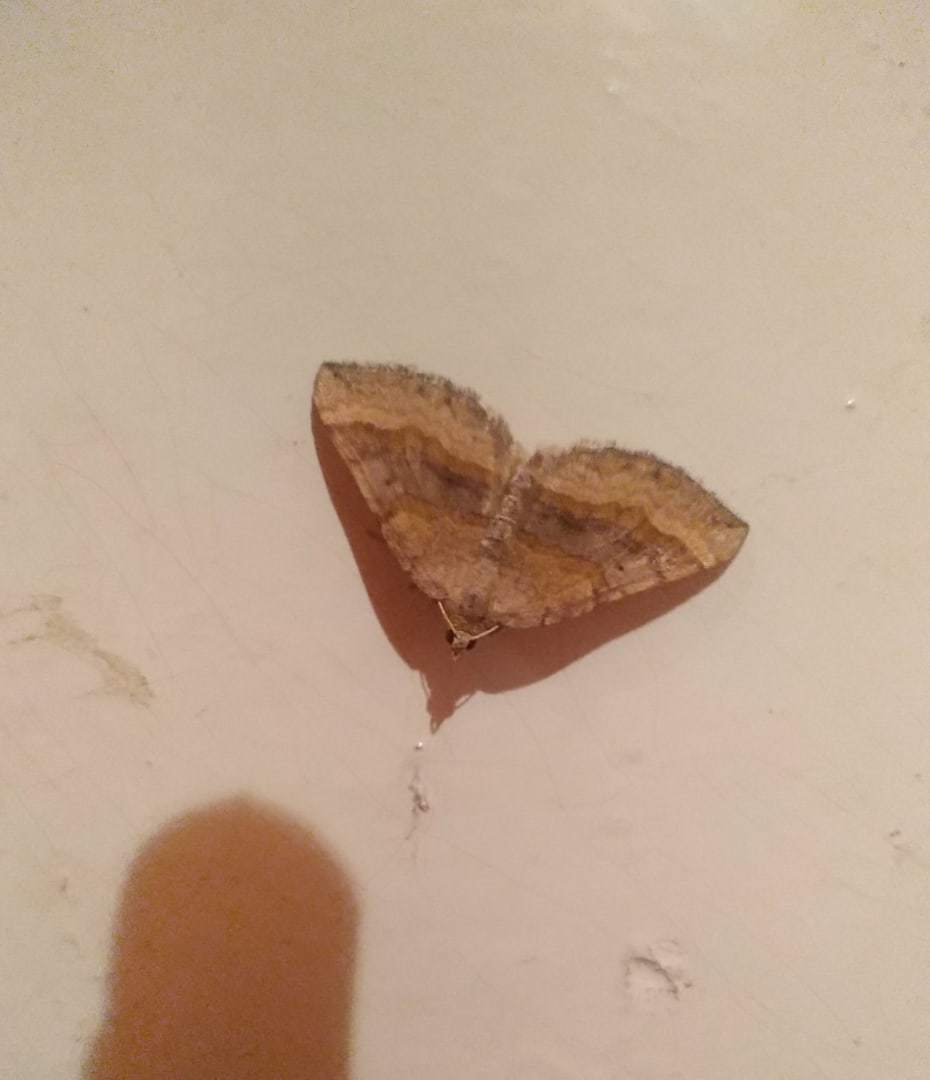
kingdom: Animalia
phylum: Arthropoda
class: Insecta
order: Lepidoptera
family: Geometridae
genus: Scotopteryx
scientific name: Scotopteryx chenopodiata
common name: Shaded broad-bar
